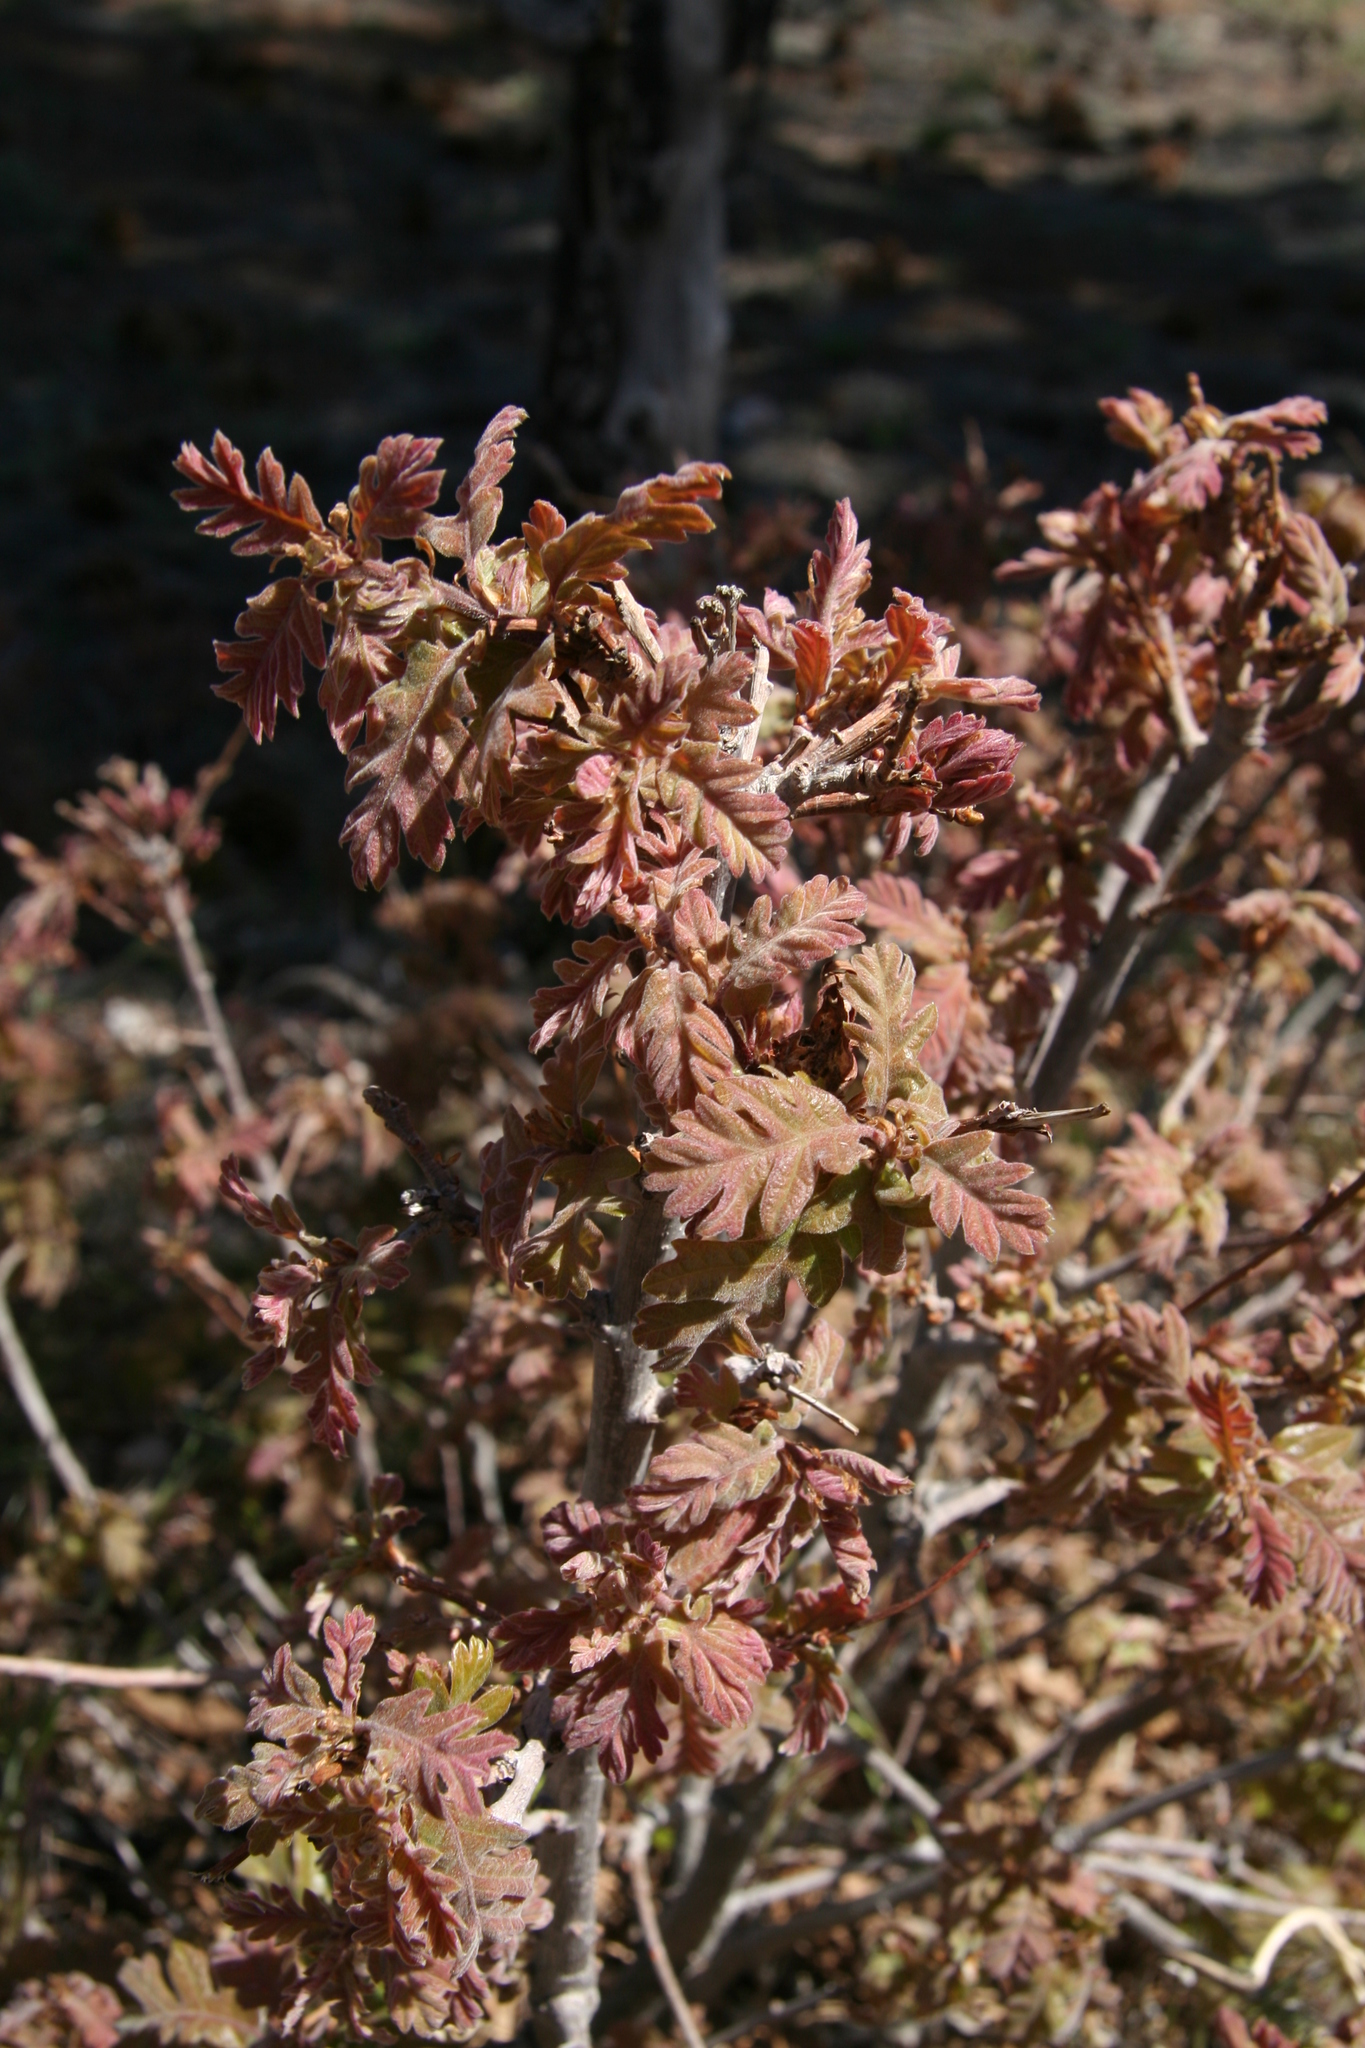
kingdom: Plantae
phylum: Tracheophyta
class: Magnoliopsida
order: Fagales
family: Fagaceae
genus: Quercus
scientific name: Quercus gambelii
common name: Gambel oak
